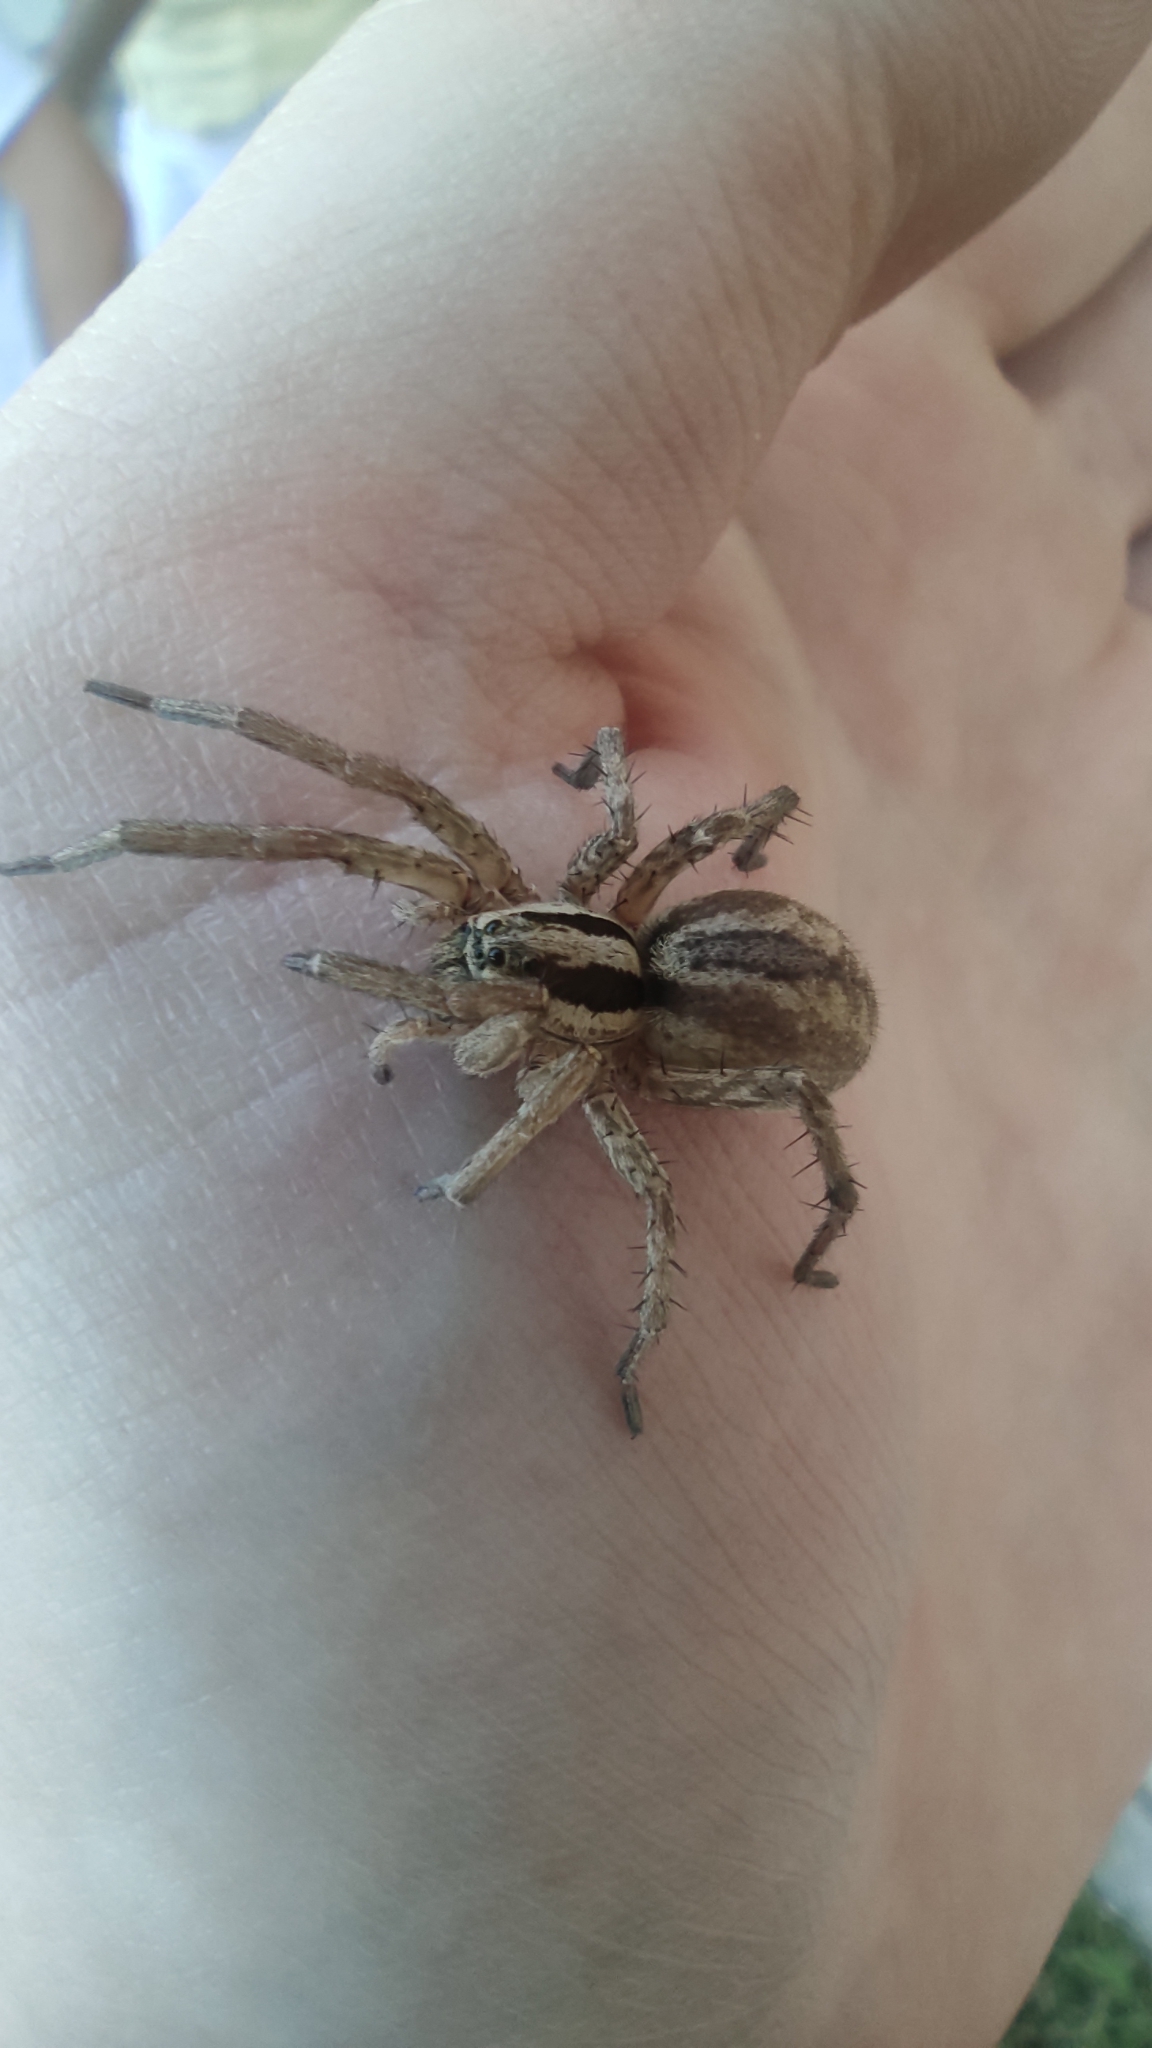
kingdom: Animalia
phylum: Arthropoda
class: Arachnida
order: Araneae
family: Lycosidae
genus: Hogna
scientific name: Hogna radiata
